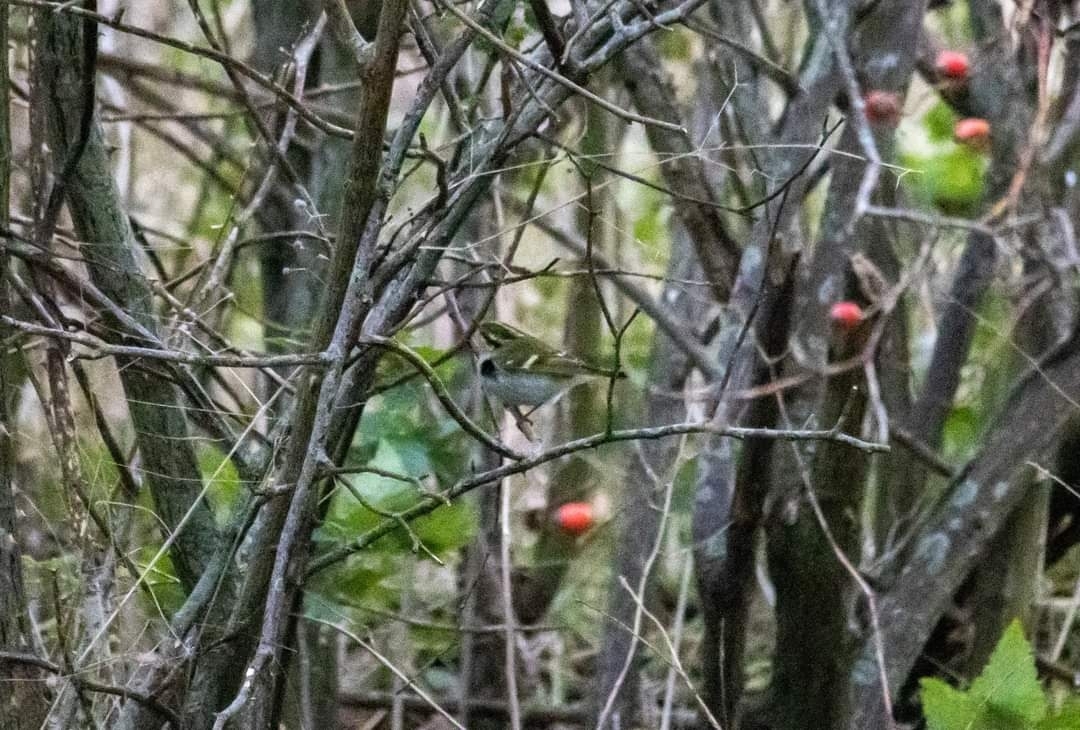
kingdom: Animalia
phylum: Chordata
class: Aves
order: Passeriformes
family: Phylloscopidae
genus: Phylloscopus
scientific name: Phylloscopus proregulus
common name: Pallas's leaf warbler
